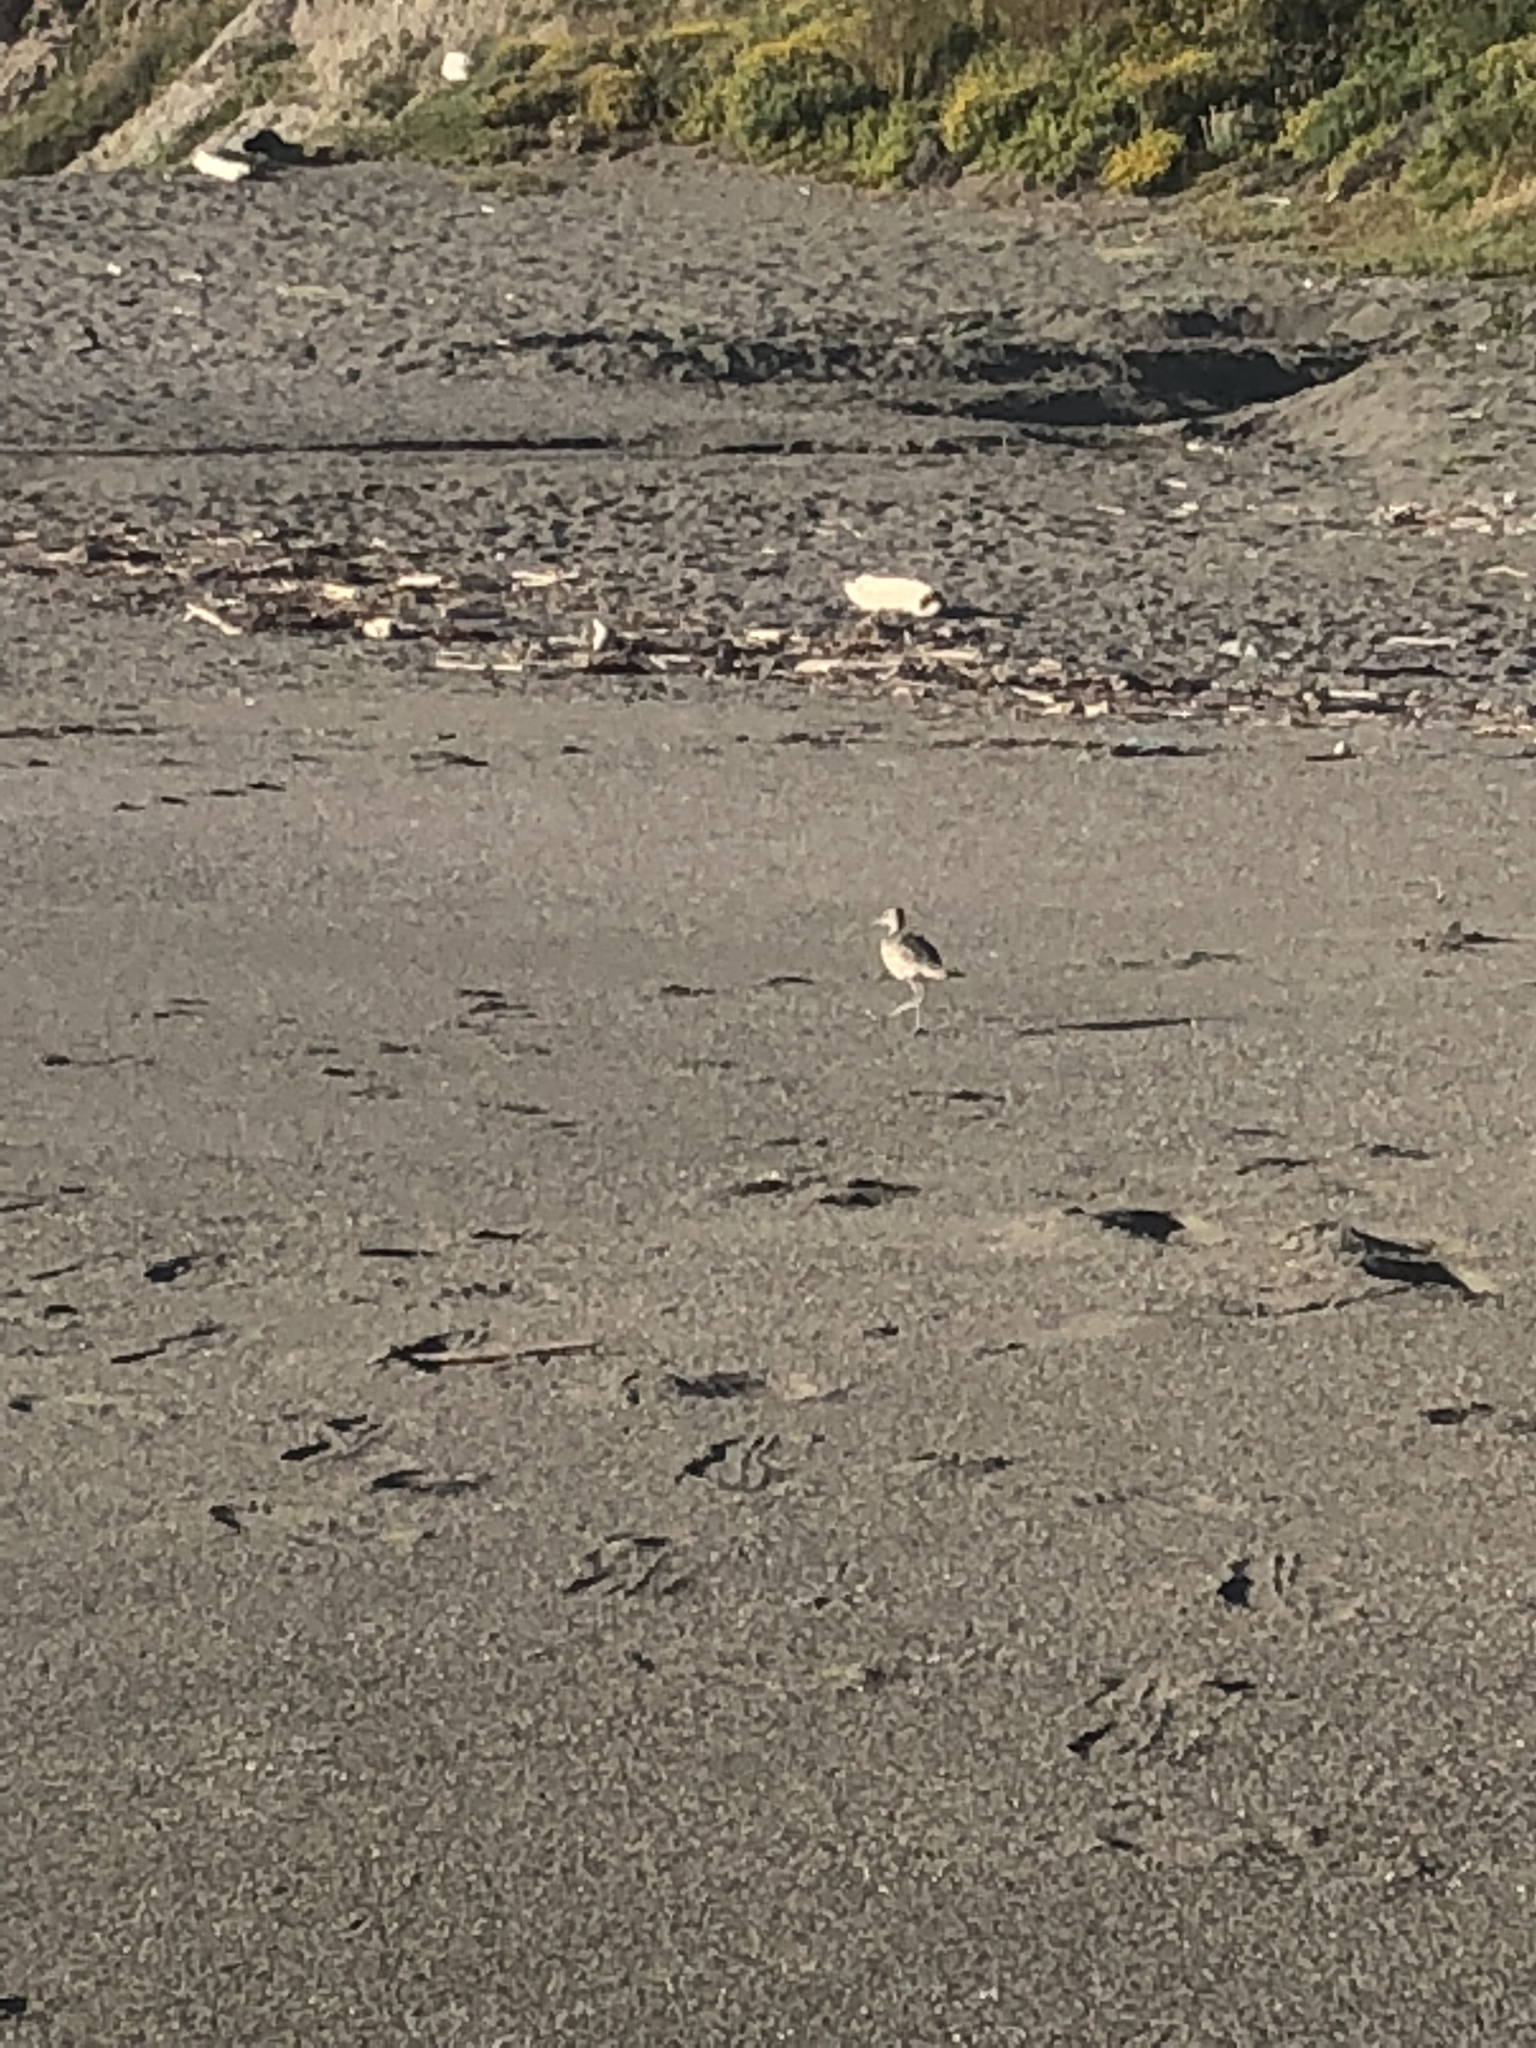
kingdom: Animalia
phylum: Chordata
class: Aves
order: Charadriiformes
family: Scolopacidae
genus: Tringa
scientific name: Tringa semipalmata
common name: Willet
